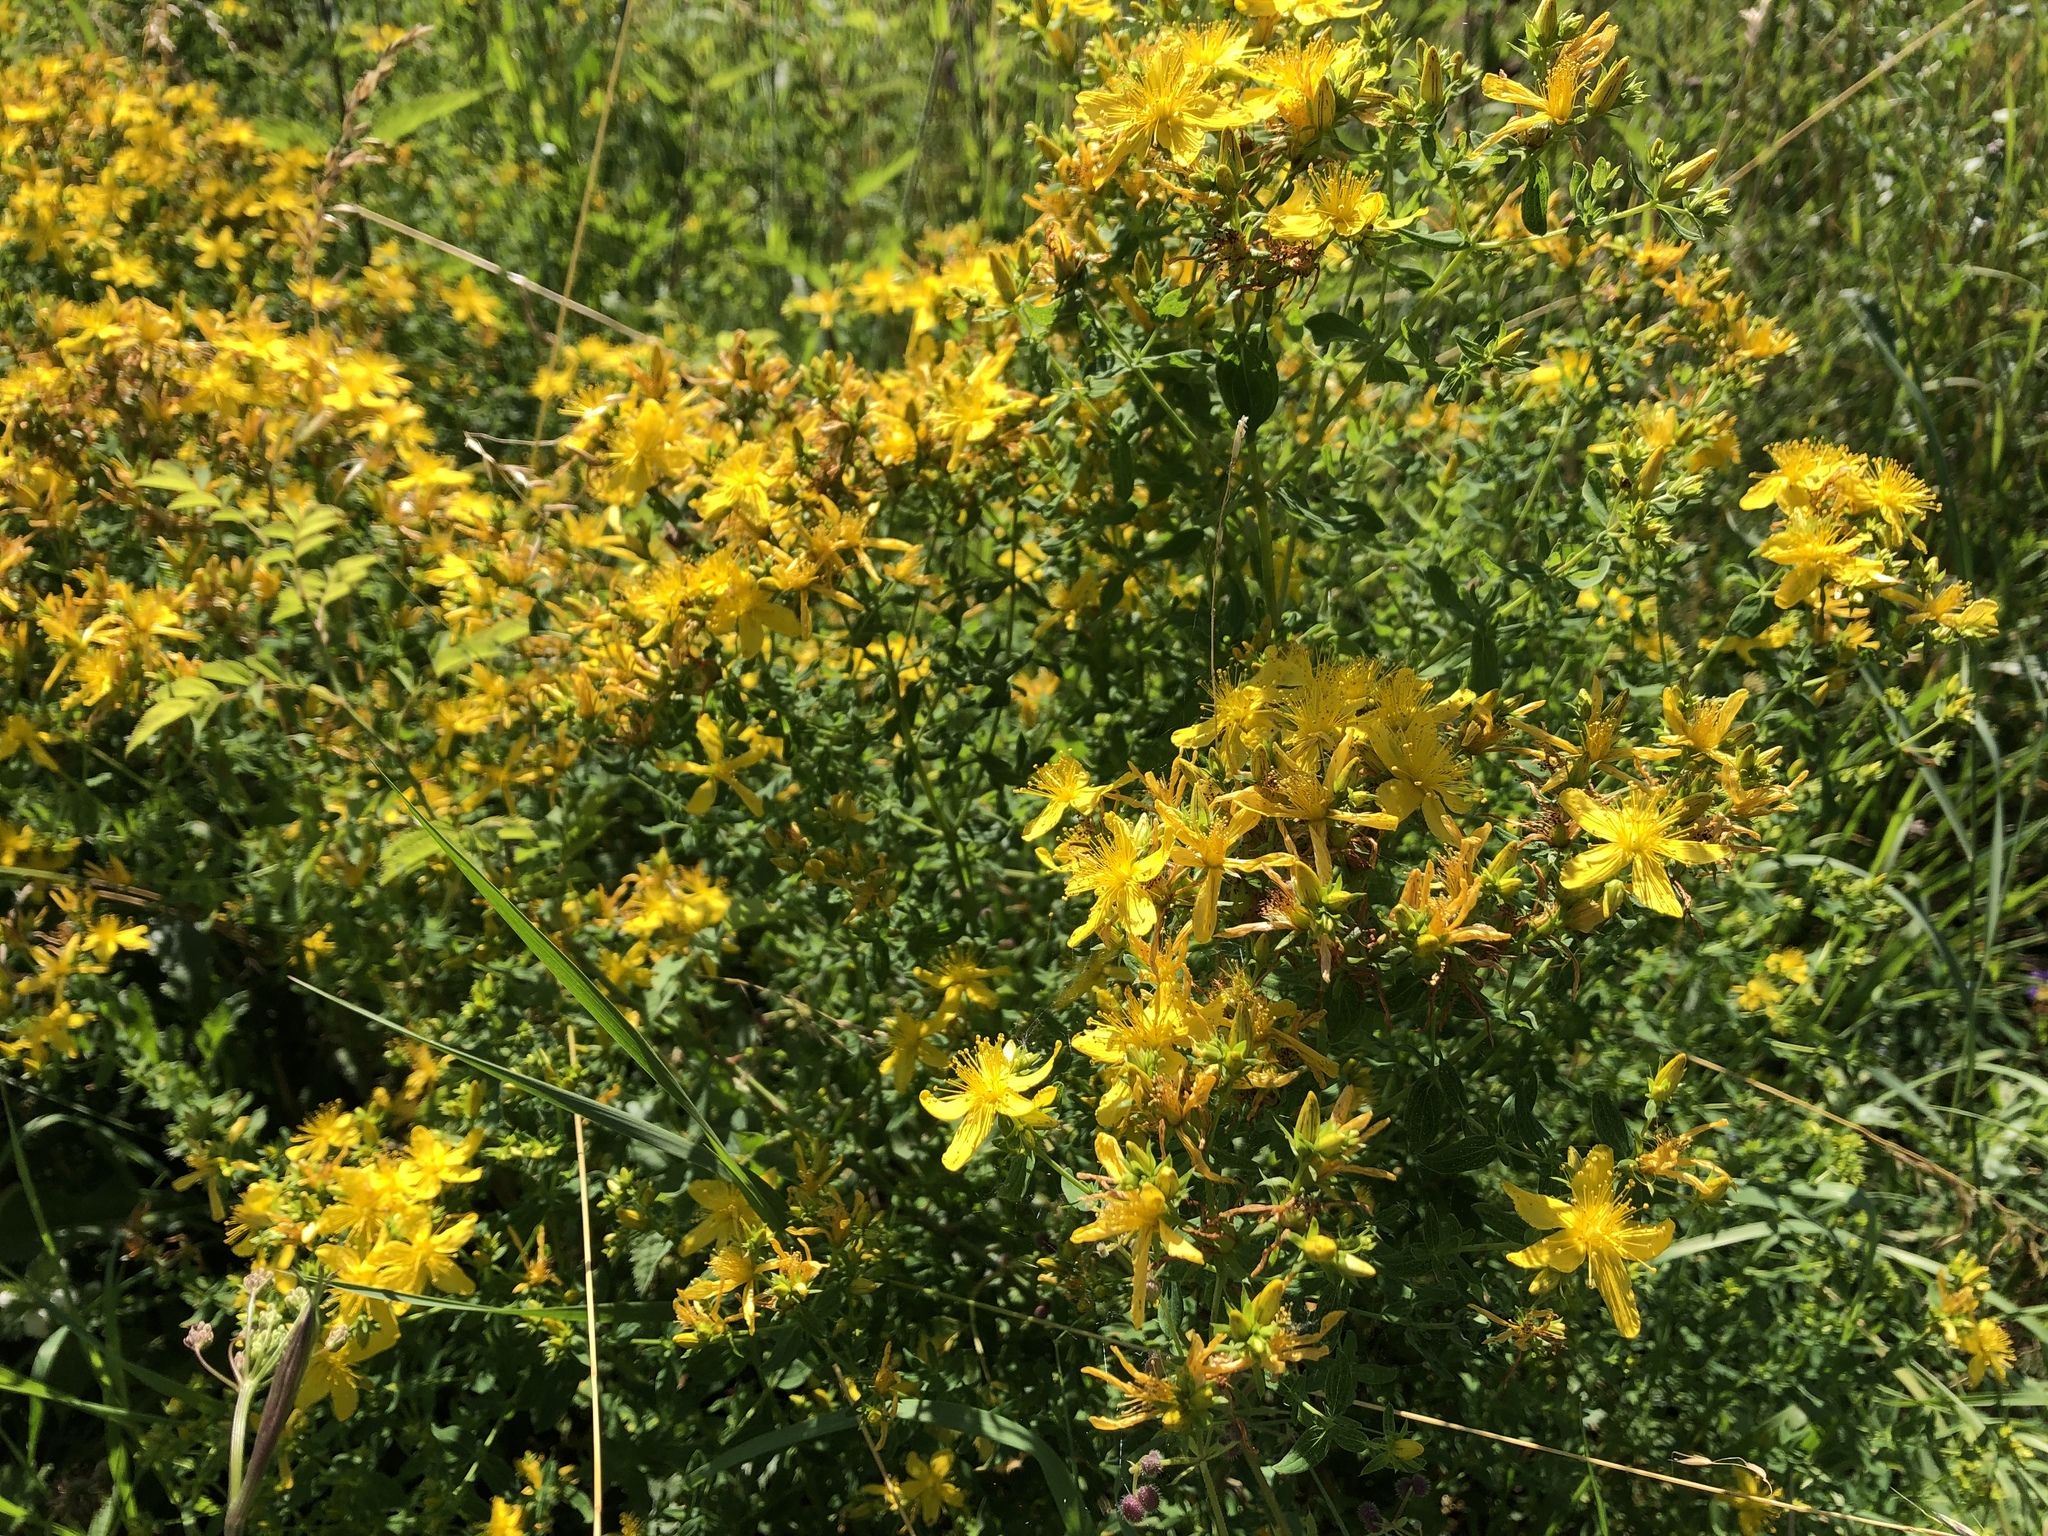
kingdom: Plantae
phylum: Tracheophyta
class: Magnoliopsida
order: Malpighiales
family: Hypericaceae
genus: Hypericum
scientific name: Hypericum perforatum
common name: Common st. johnswort
